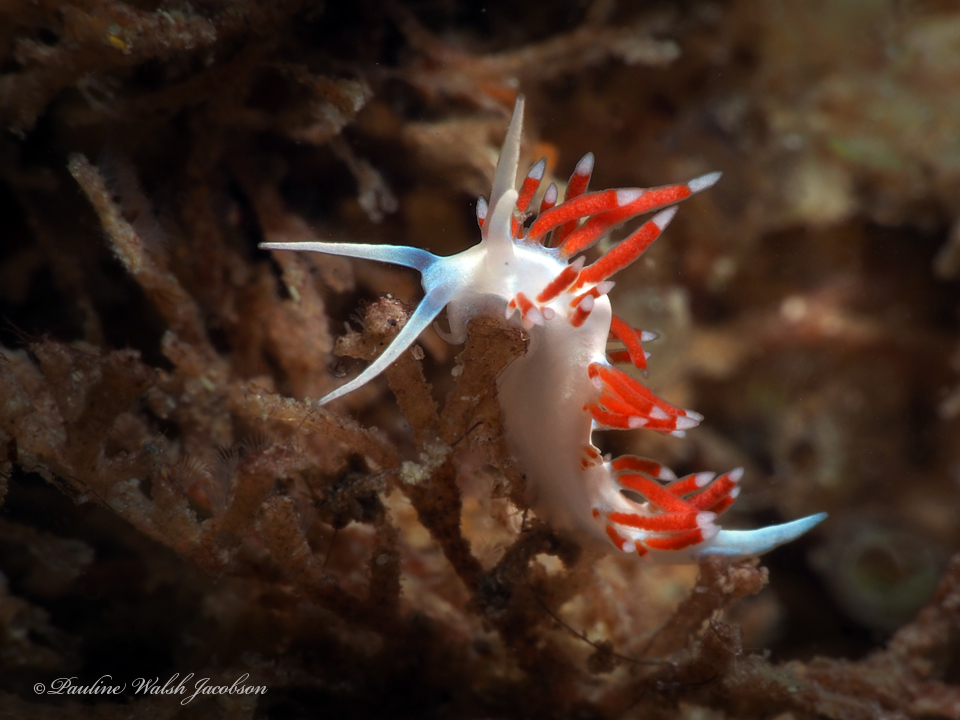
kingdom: Animalia
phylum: Mollusca
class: Gastropoda
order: Nudibranchia
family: Flabellinidae
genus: Flabellina
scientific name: Flabellina dushia
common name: Dushia flabellina
